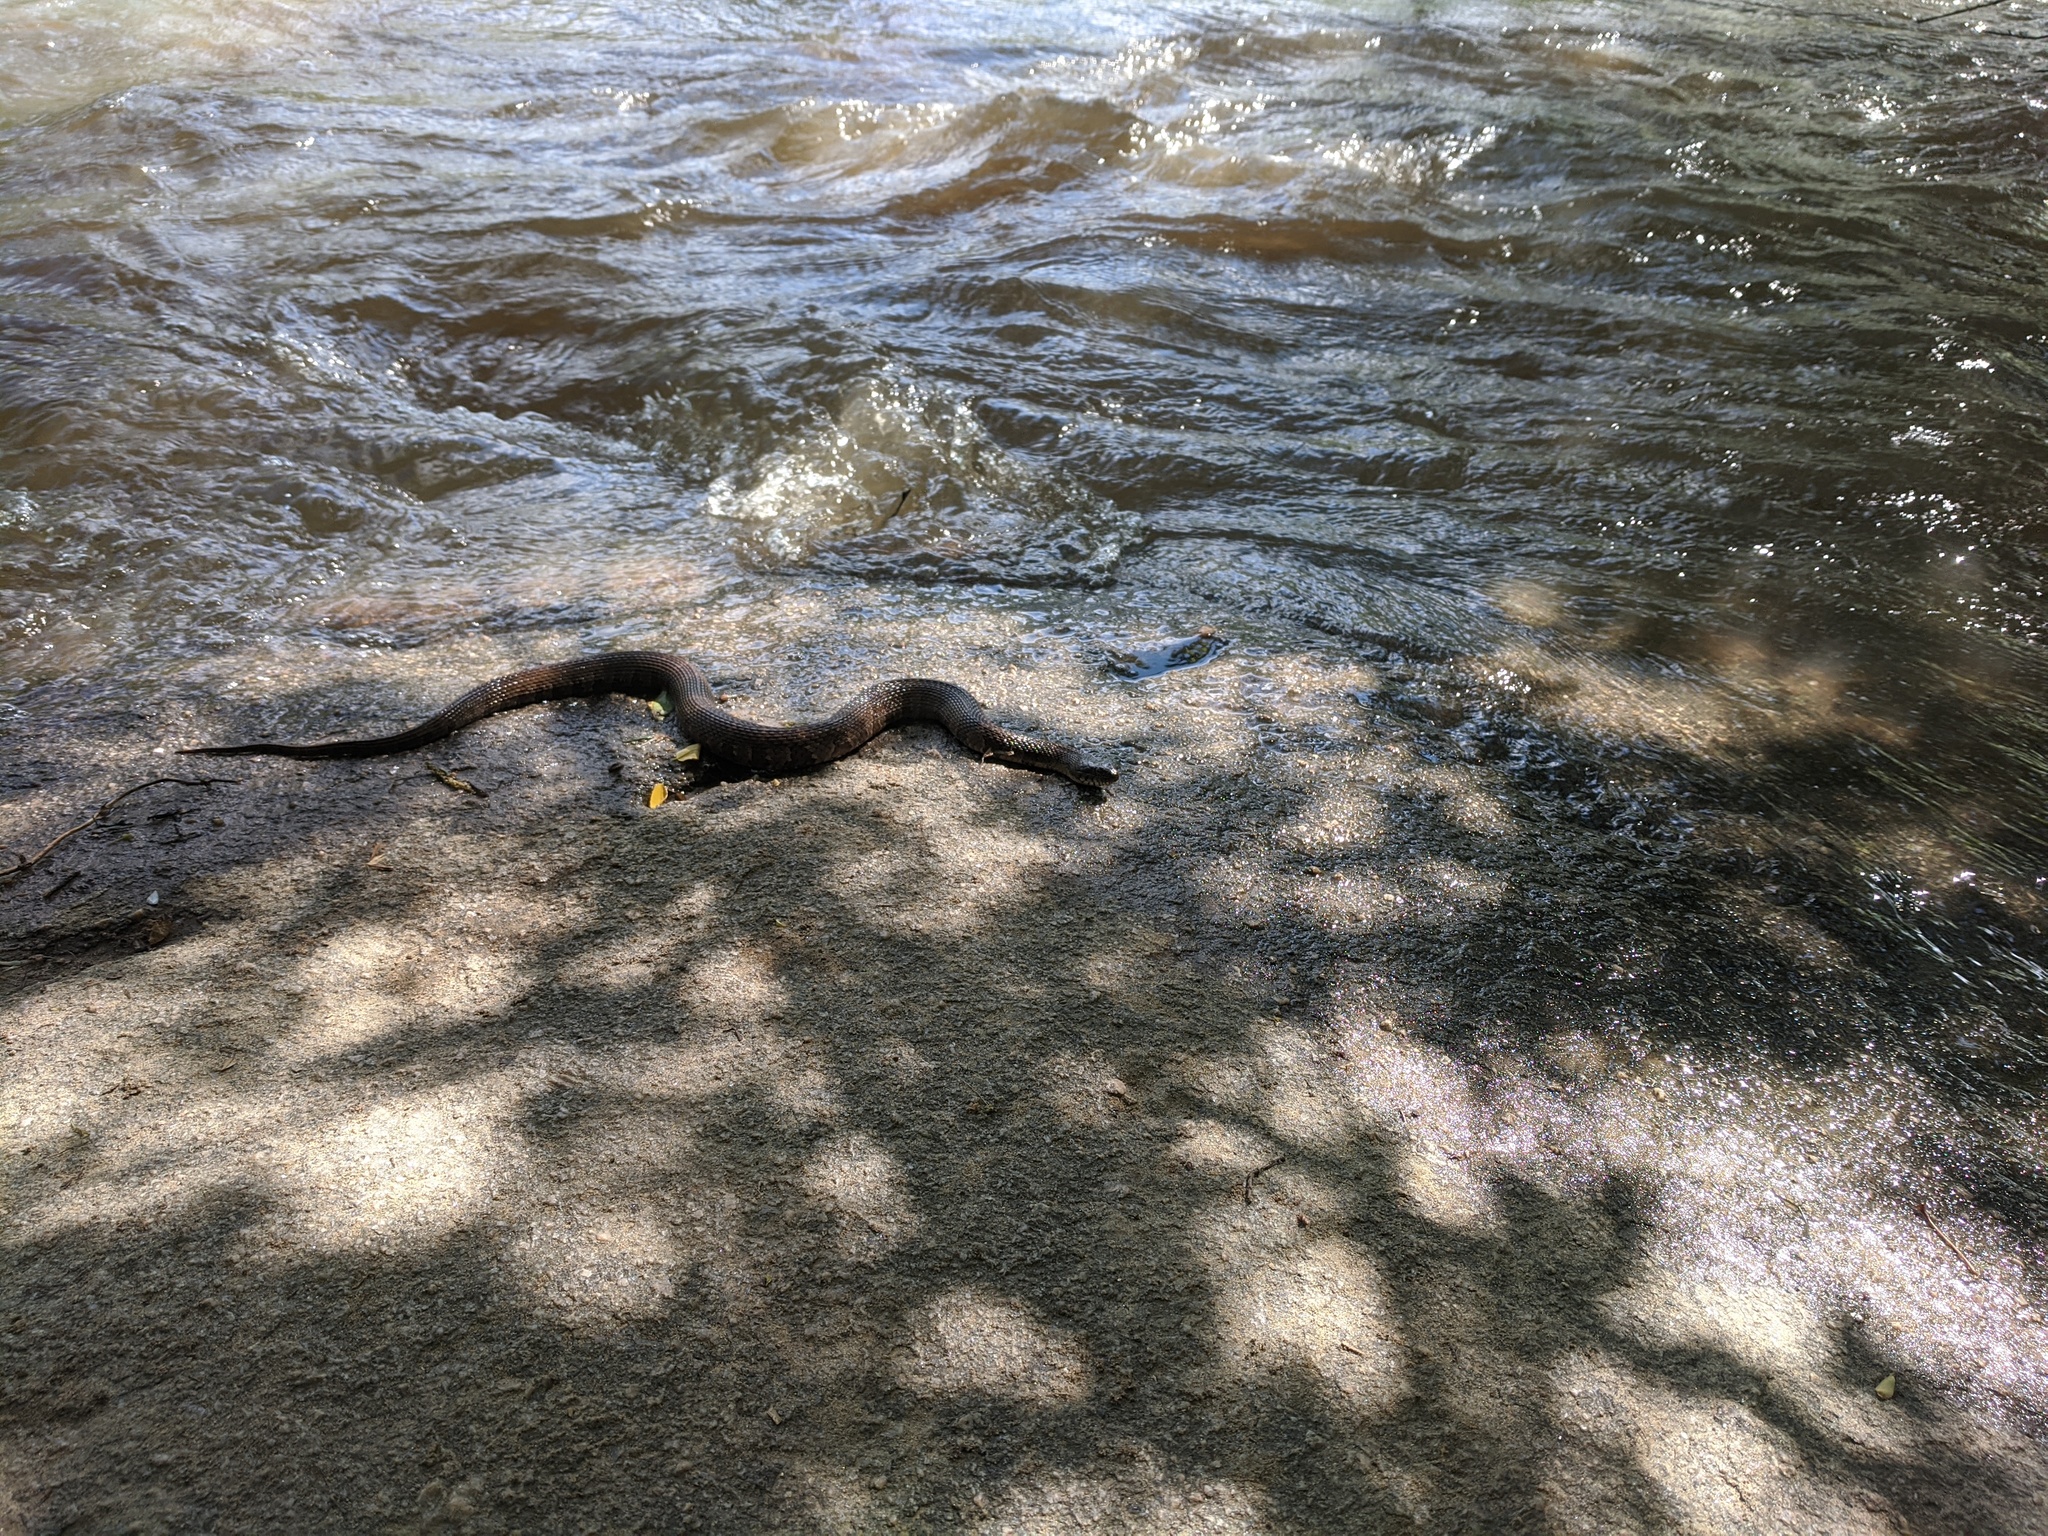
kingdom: Animalia
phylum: Chordata
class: Squamata
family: Colubridae
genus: Nerodia
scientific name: Nerodia sipedon
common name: Northern water snake
